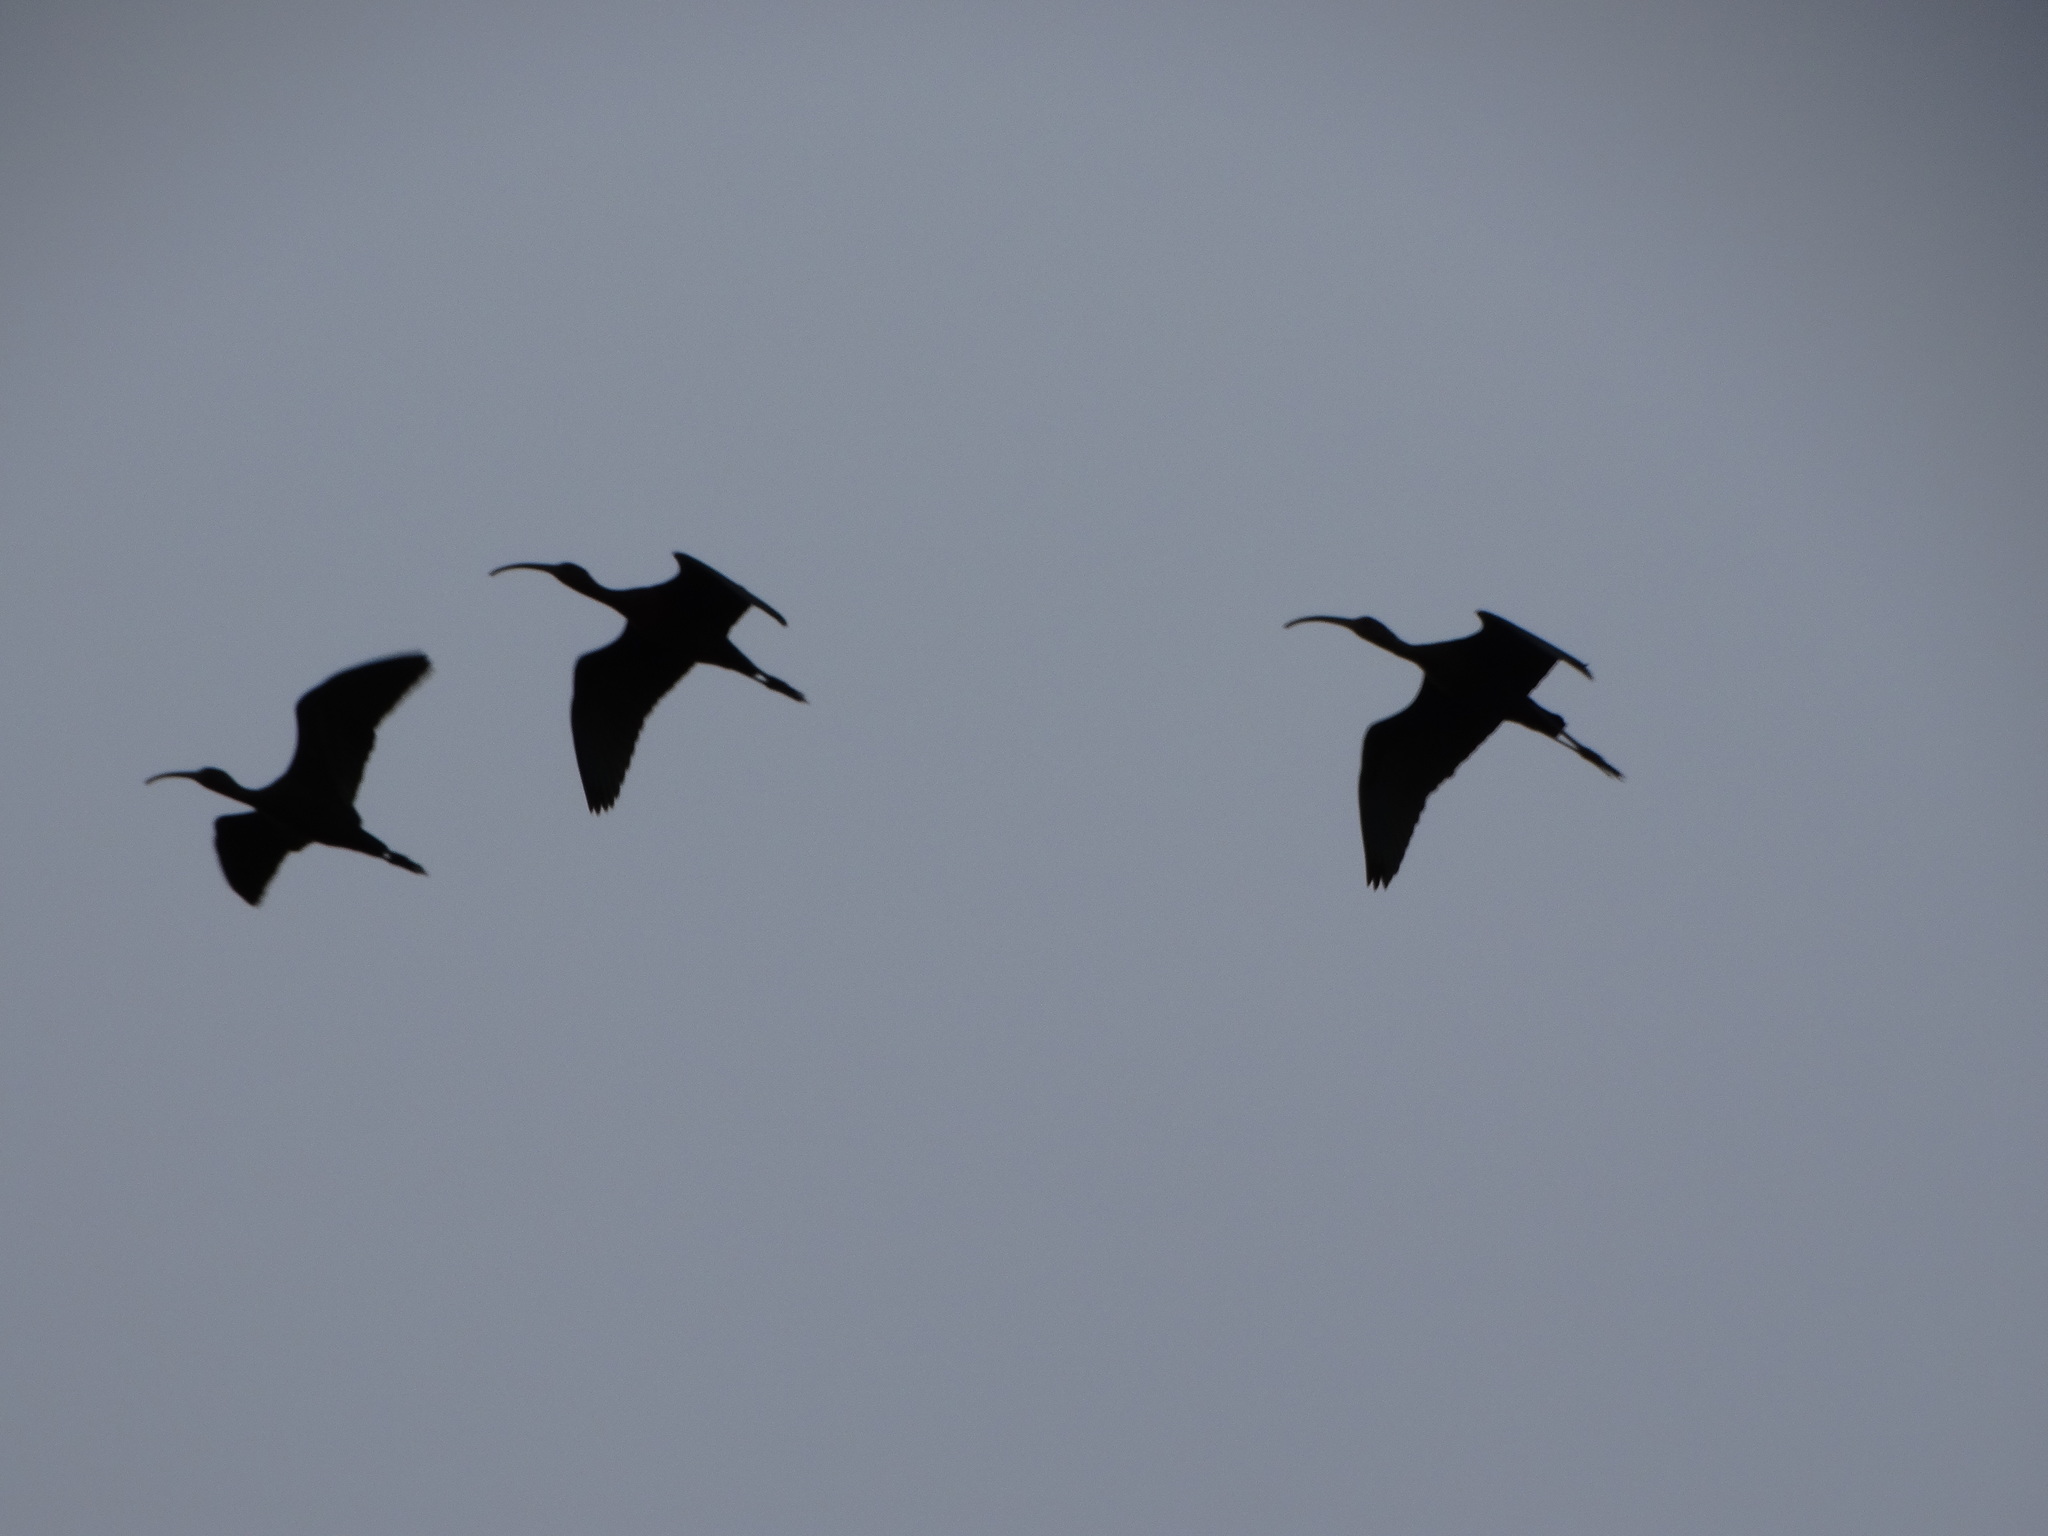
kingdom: Animalia
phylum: Chordata
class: Aves
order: Pelecaniformes
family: Threskiornithidae
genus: Plegadis
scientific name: Plegadis chihi
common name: White-faced ibis
